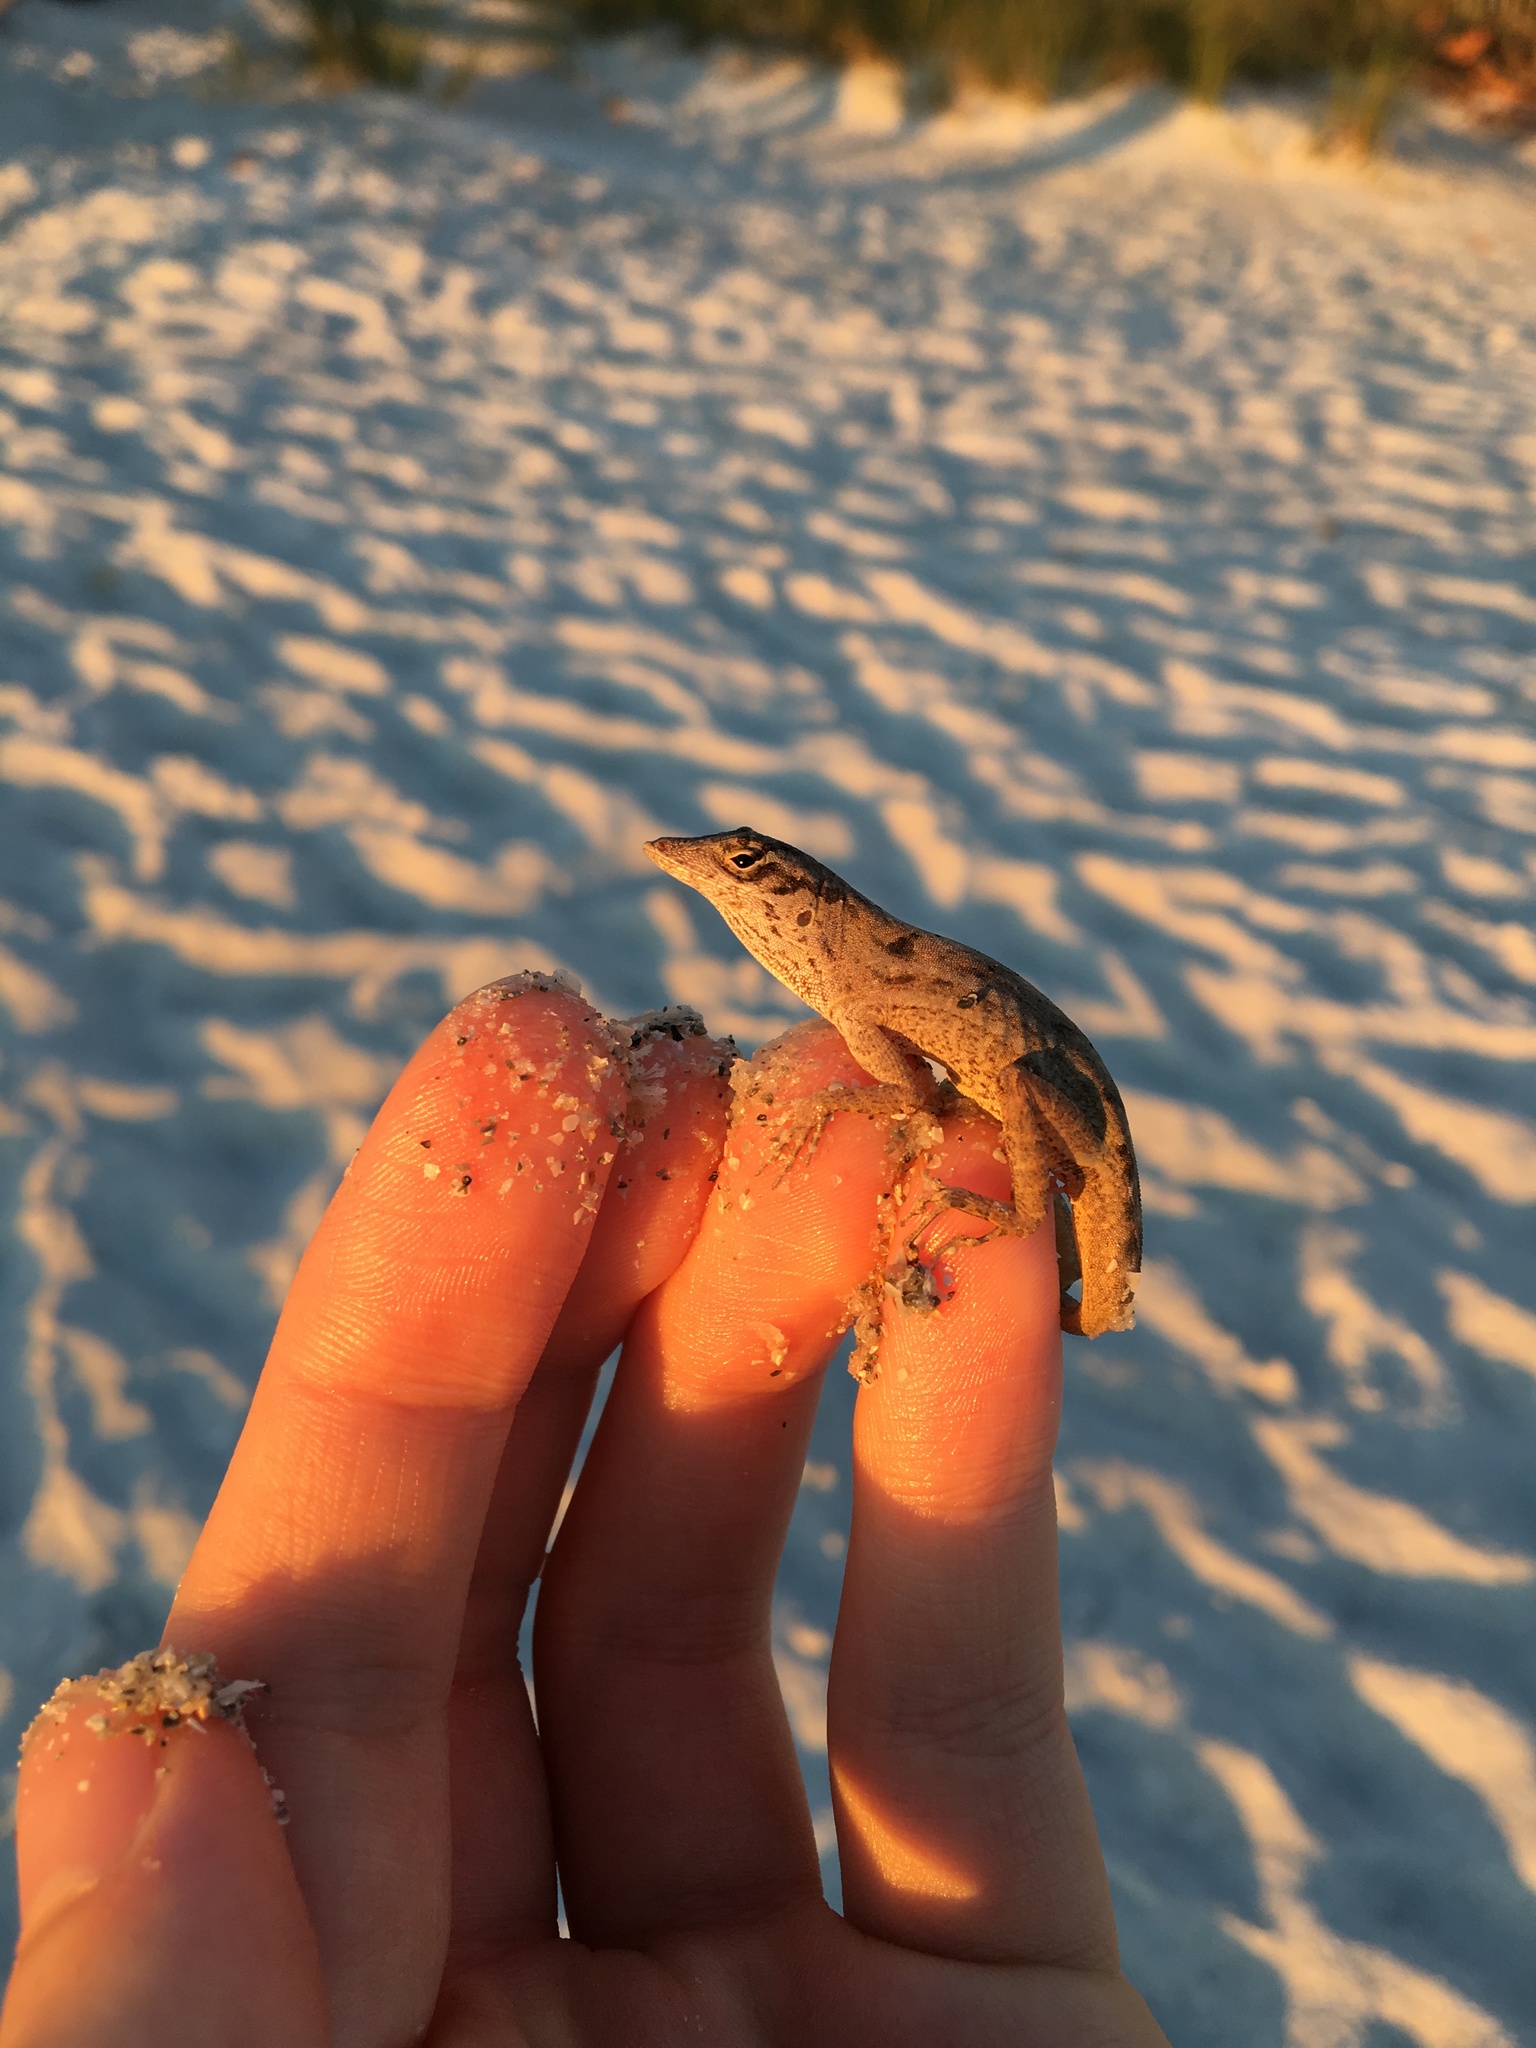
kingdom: Animalia
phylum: Chordata
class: Squamata
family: Dactyloidae
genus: Anolis
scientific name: Anolis sagrei
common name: Brown anole
